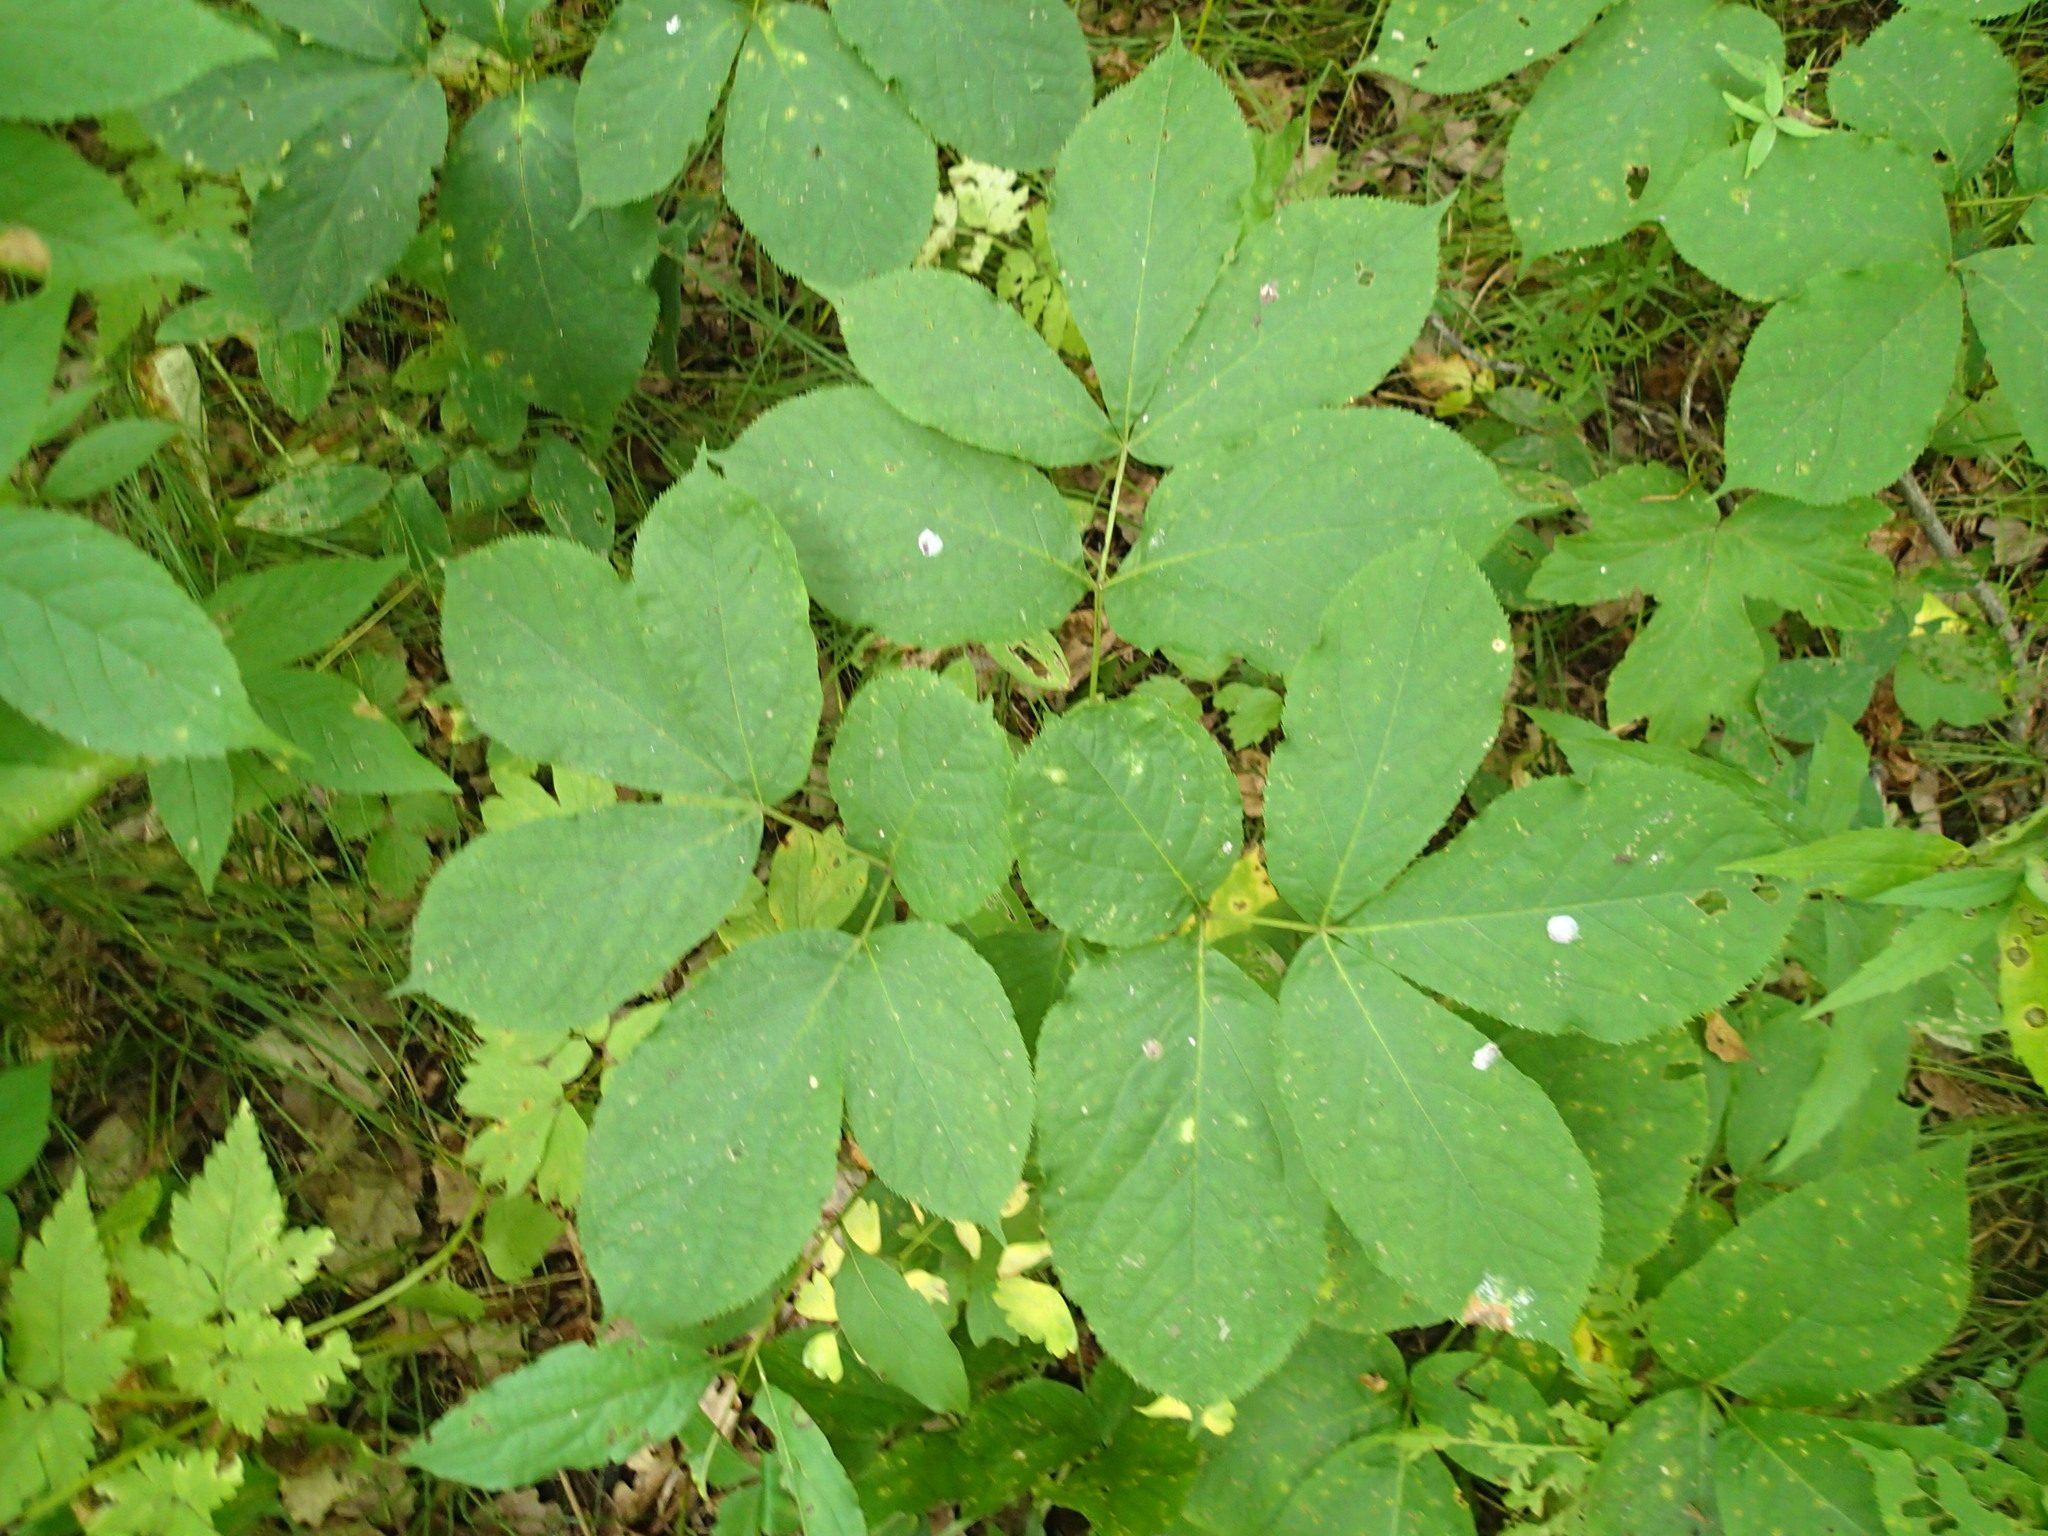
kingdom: Plantae
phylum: Tracheophyta
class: Magnoliopsida
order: Apiales
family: Araliaceae
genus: Aralia
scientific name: Aralia nudicaulis
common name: Wild sarsaparilla
